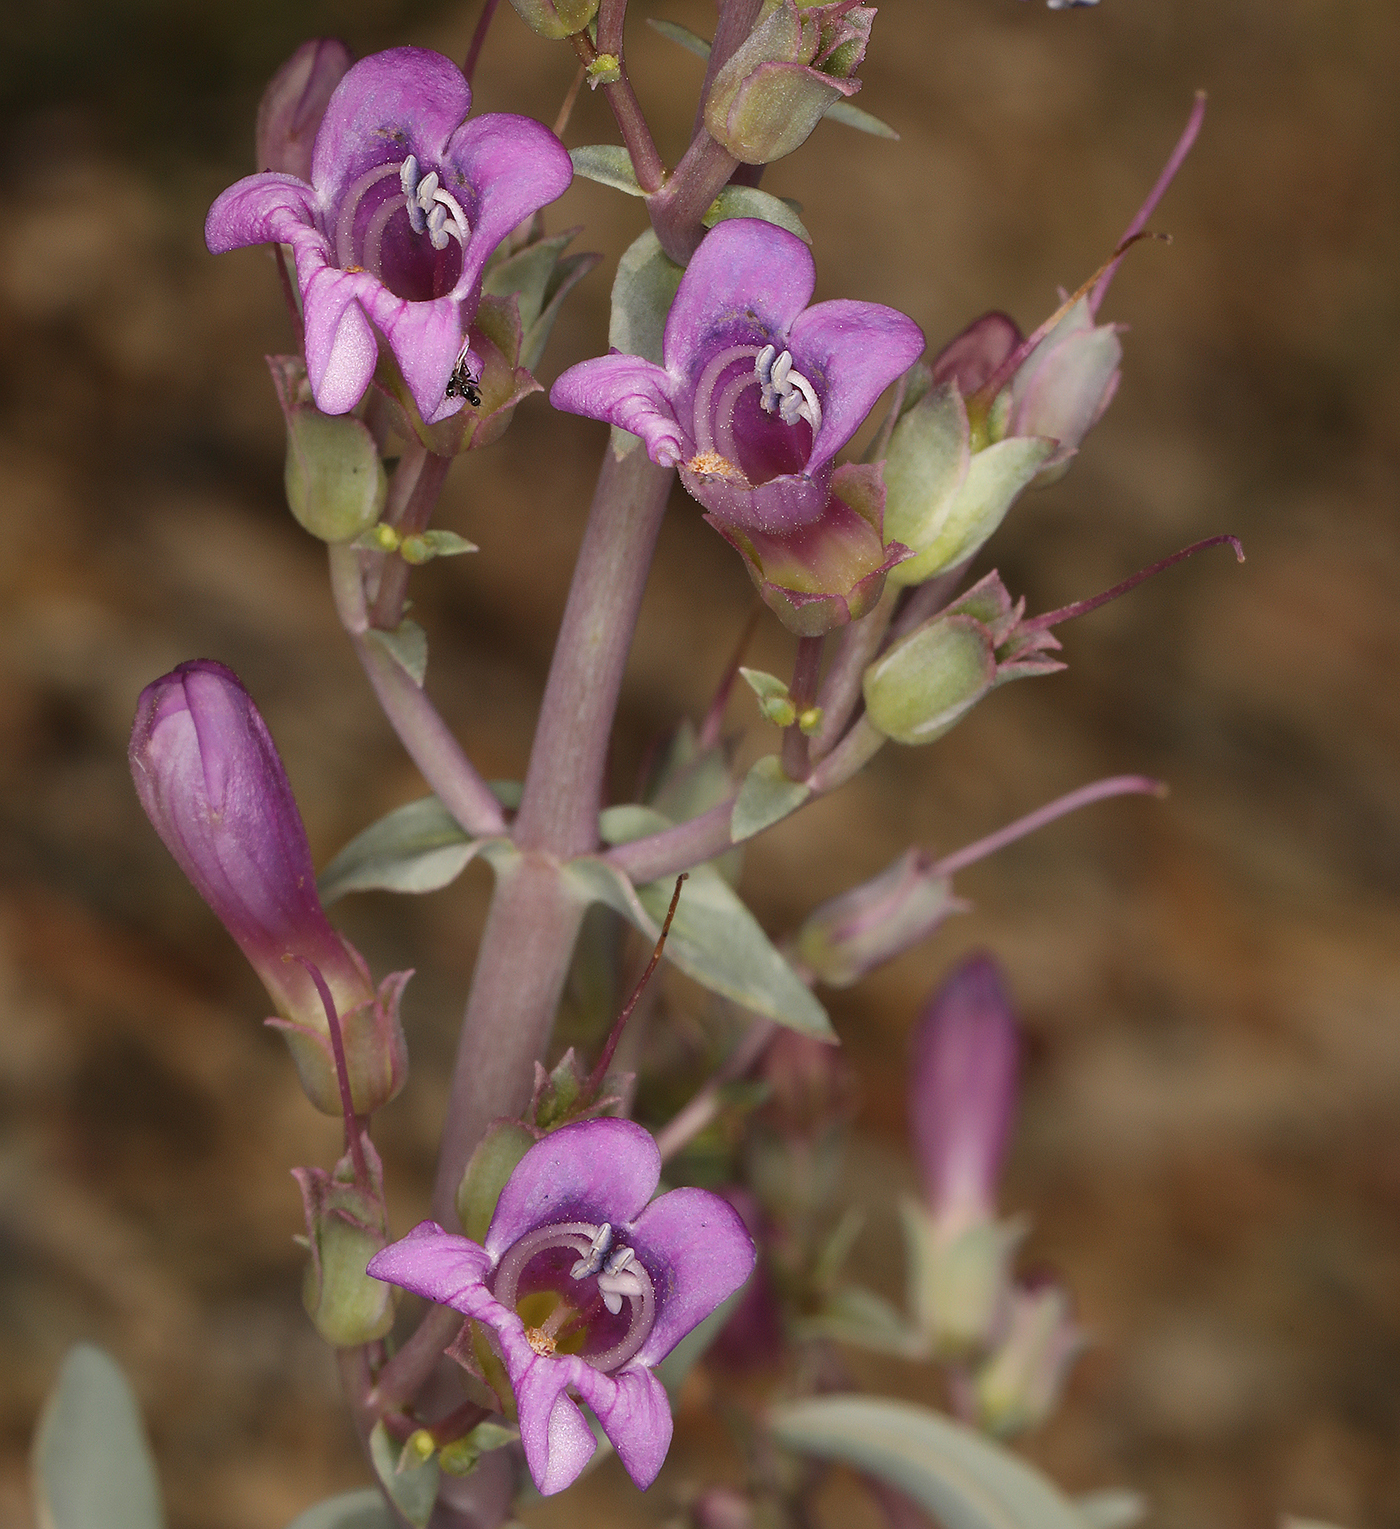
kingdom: Plantae
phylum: Tracheophyta
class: Magnoliopsida
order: Lamiales
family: Plantaginaceae
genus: Penstemon
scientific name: Penstemon patens
